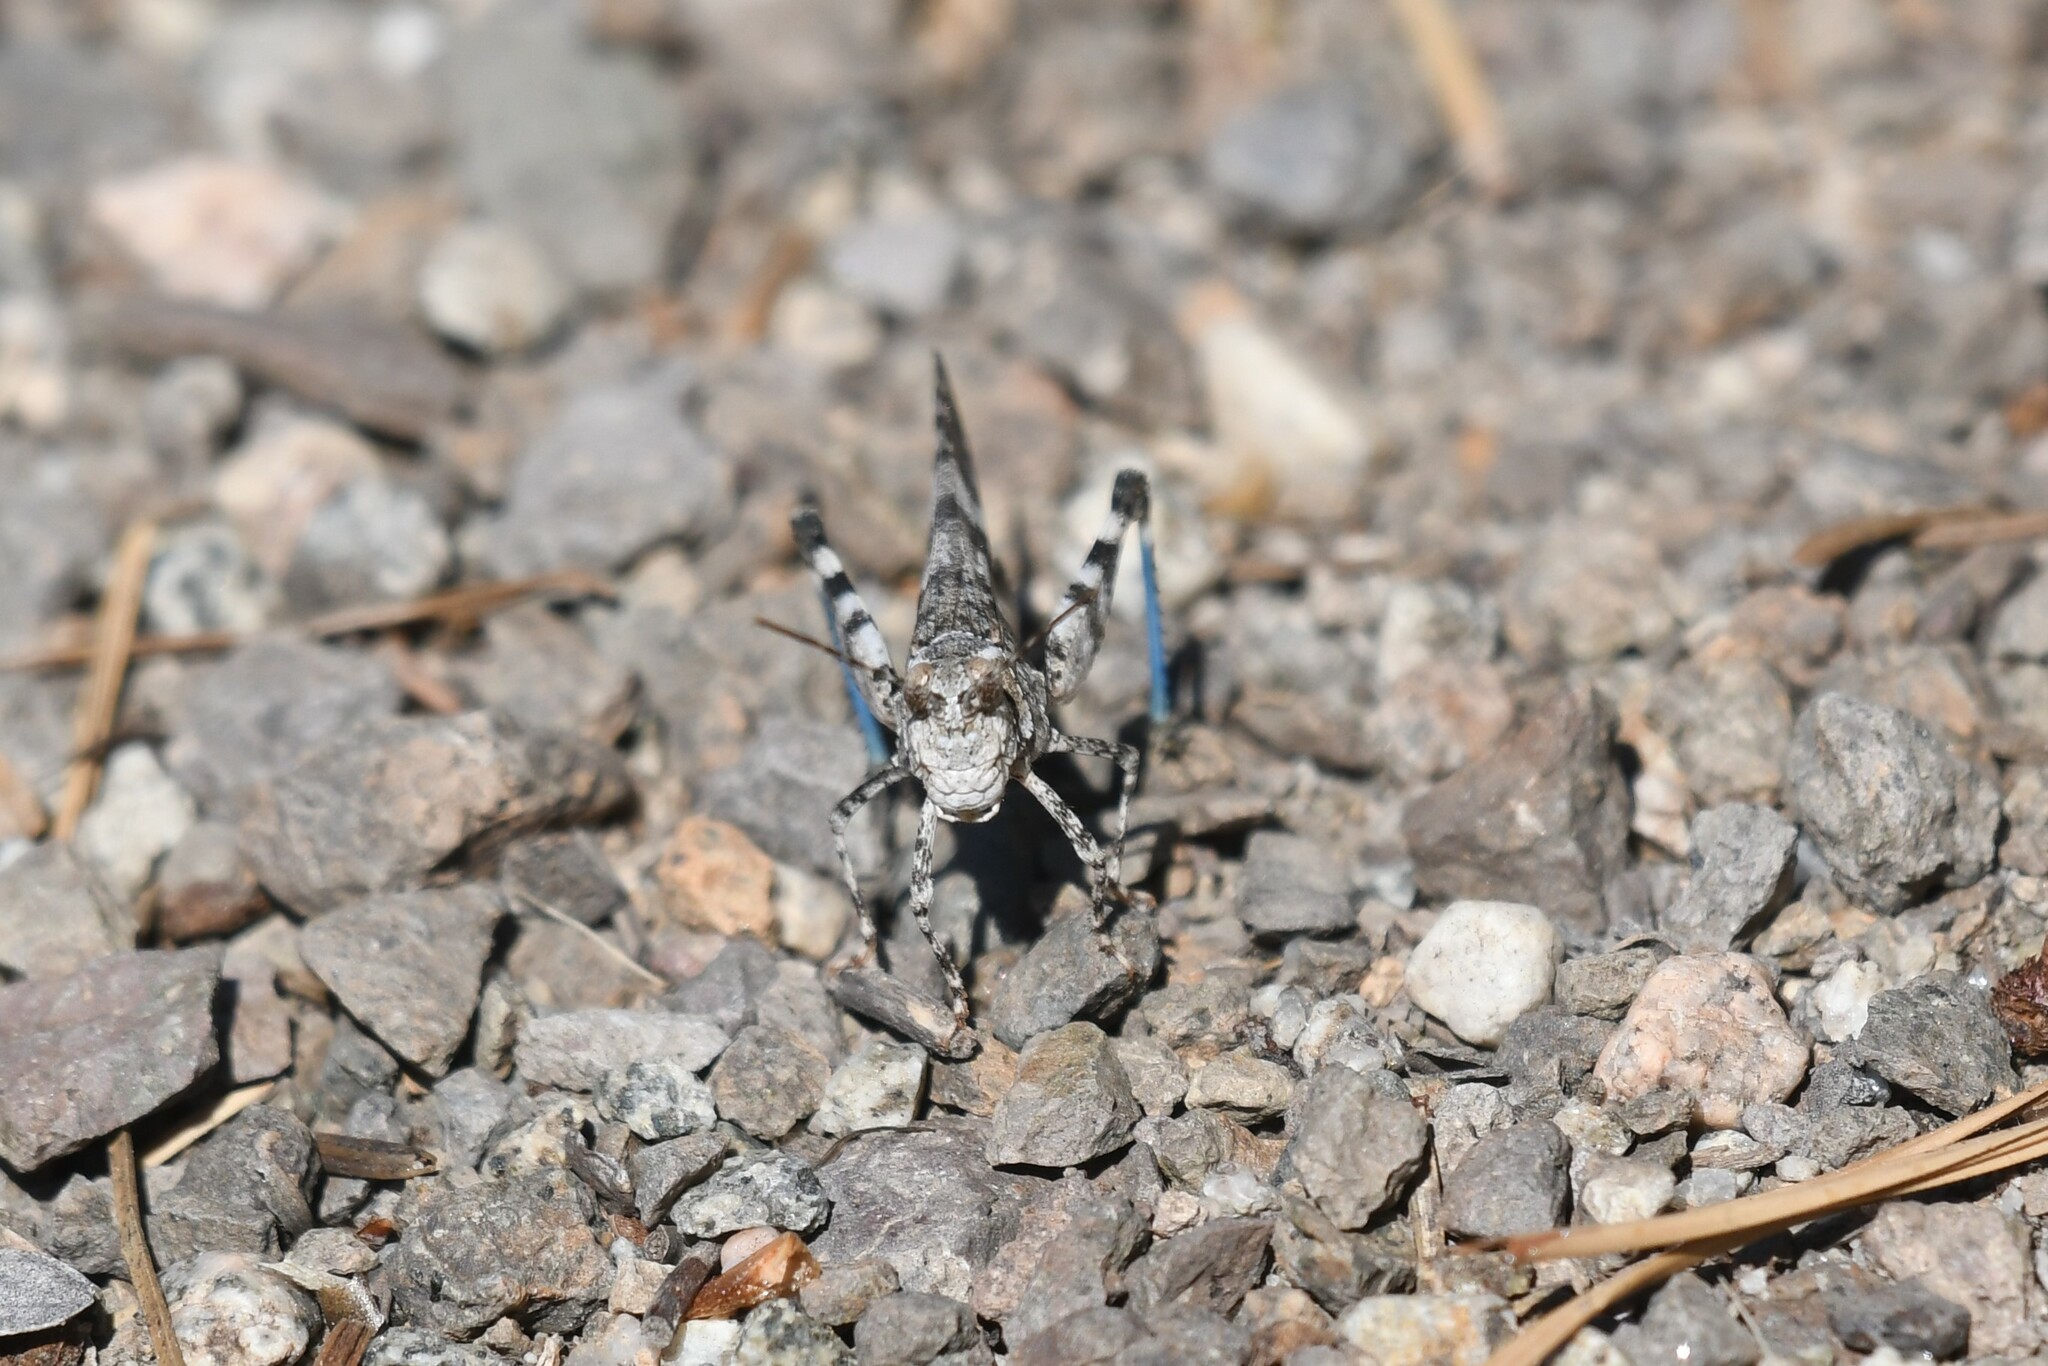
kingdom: Animalia
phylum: Arthropoda
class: Insecta
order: Orthoptera
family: Acrididae
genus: Trimerotropis
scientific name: Trimerotropis fontana
